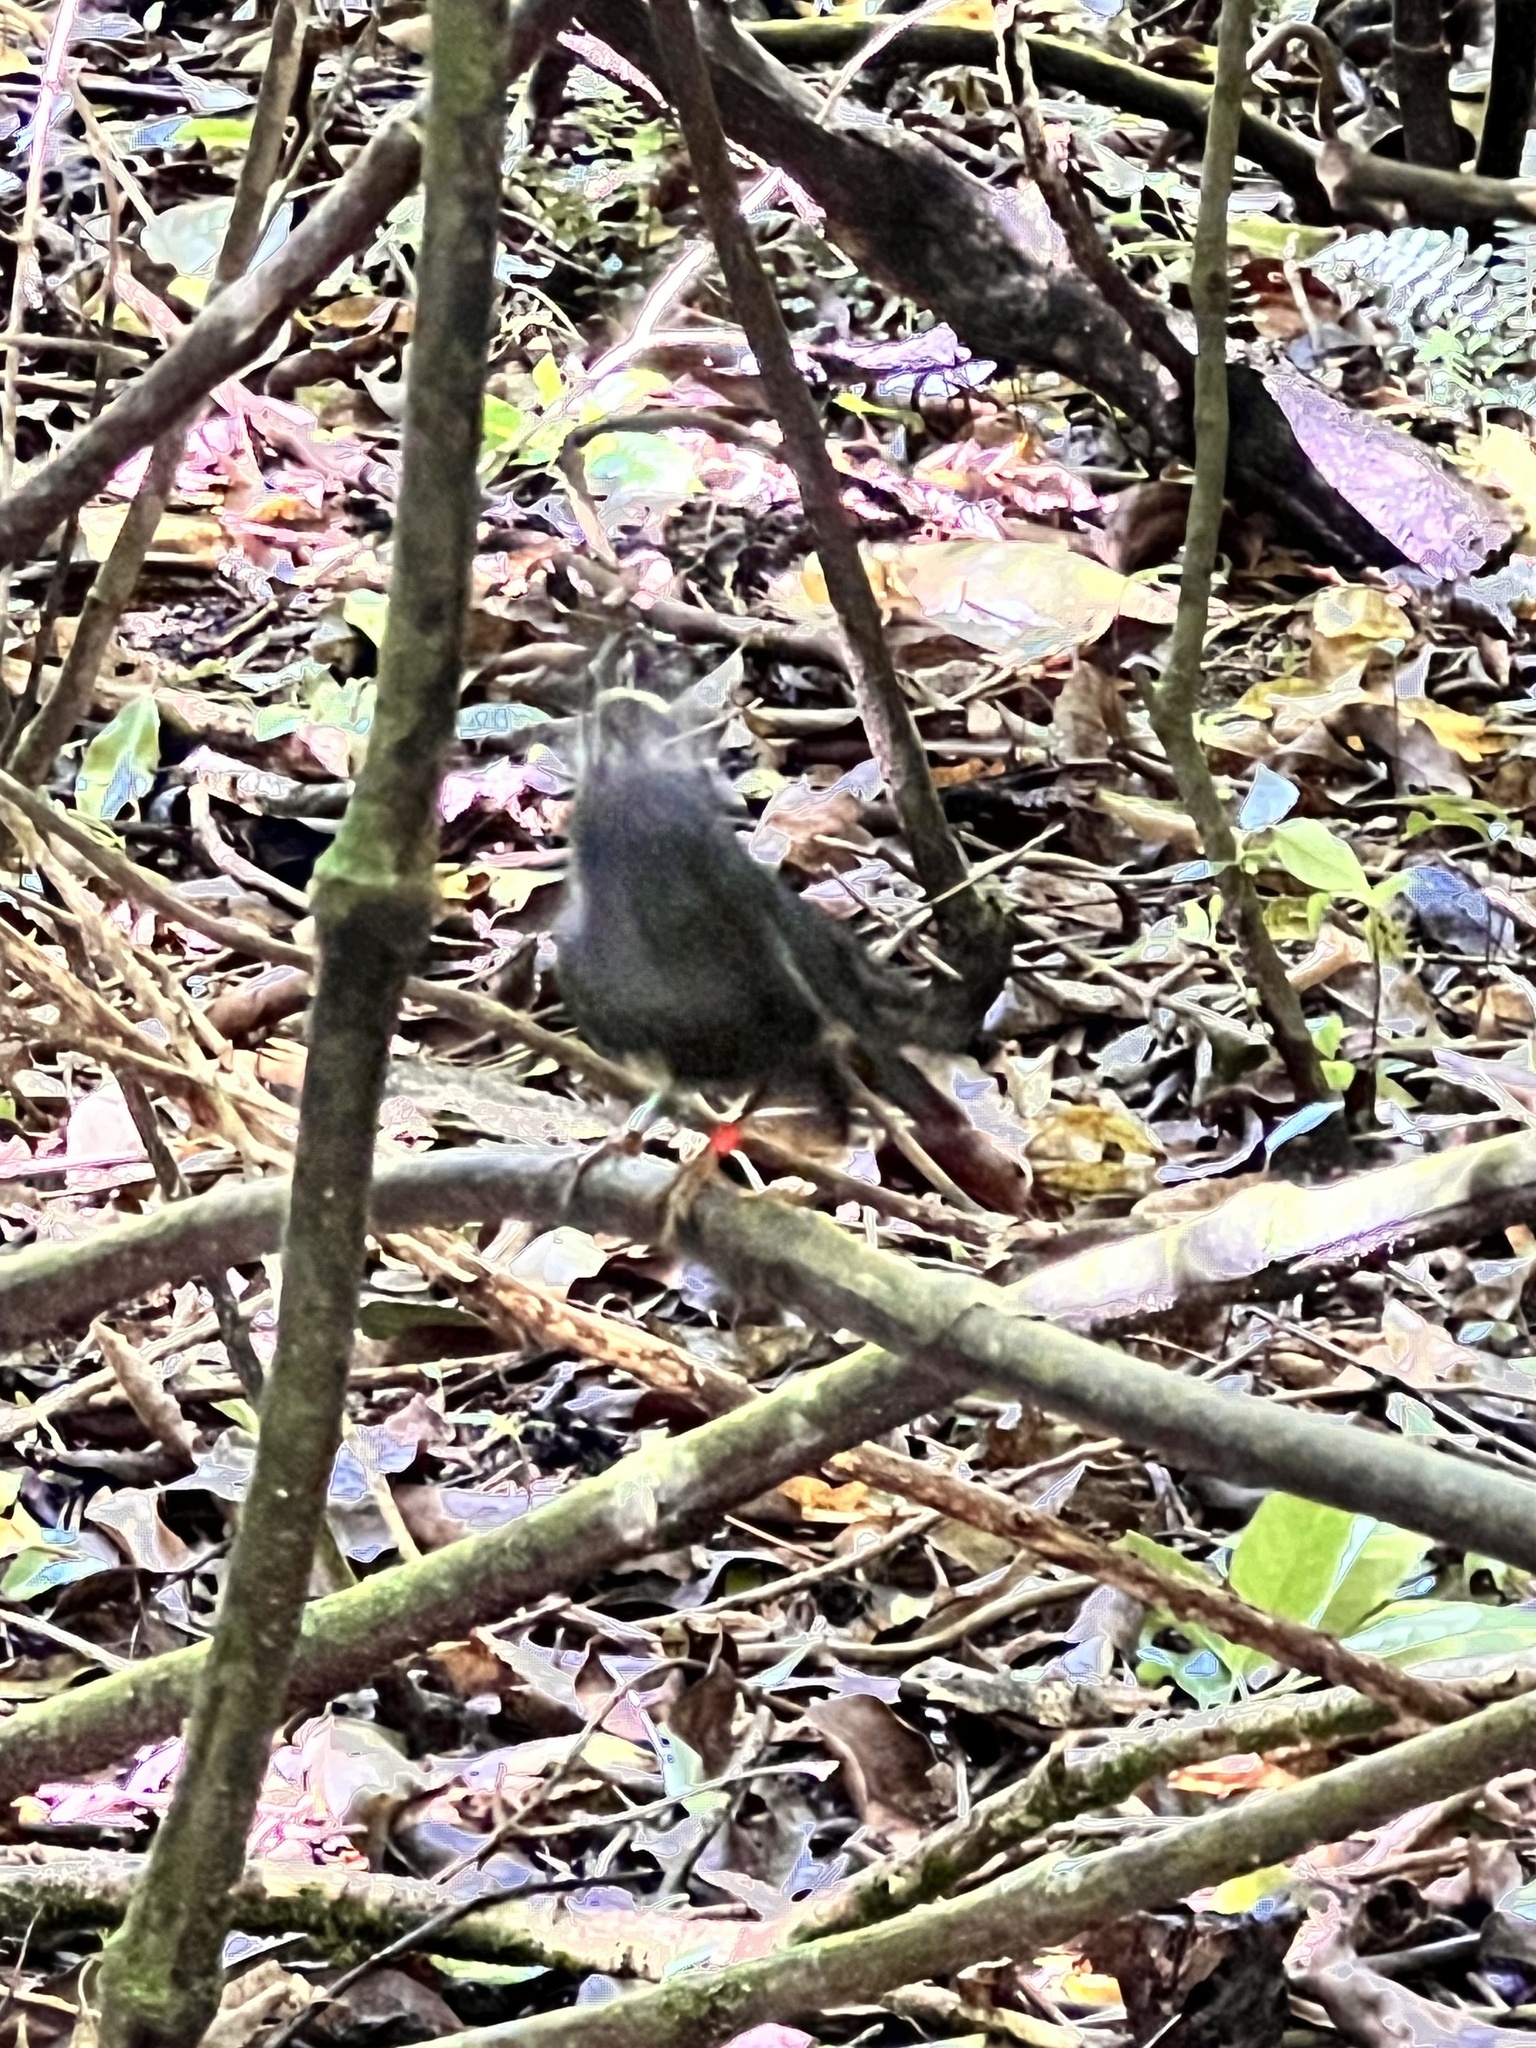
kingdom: Animalia
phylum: Chordata
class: Aves
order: Passeriformes
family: Petroicidae
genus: Petroica
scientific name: Petroica australis
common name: New zealand robin
